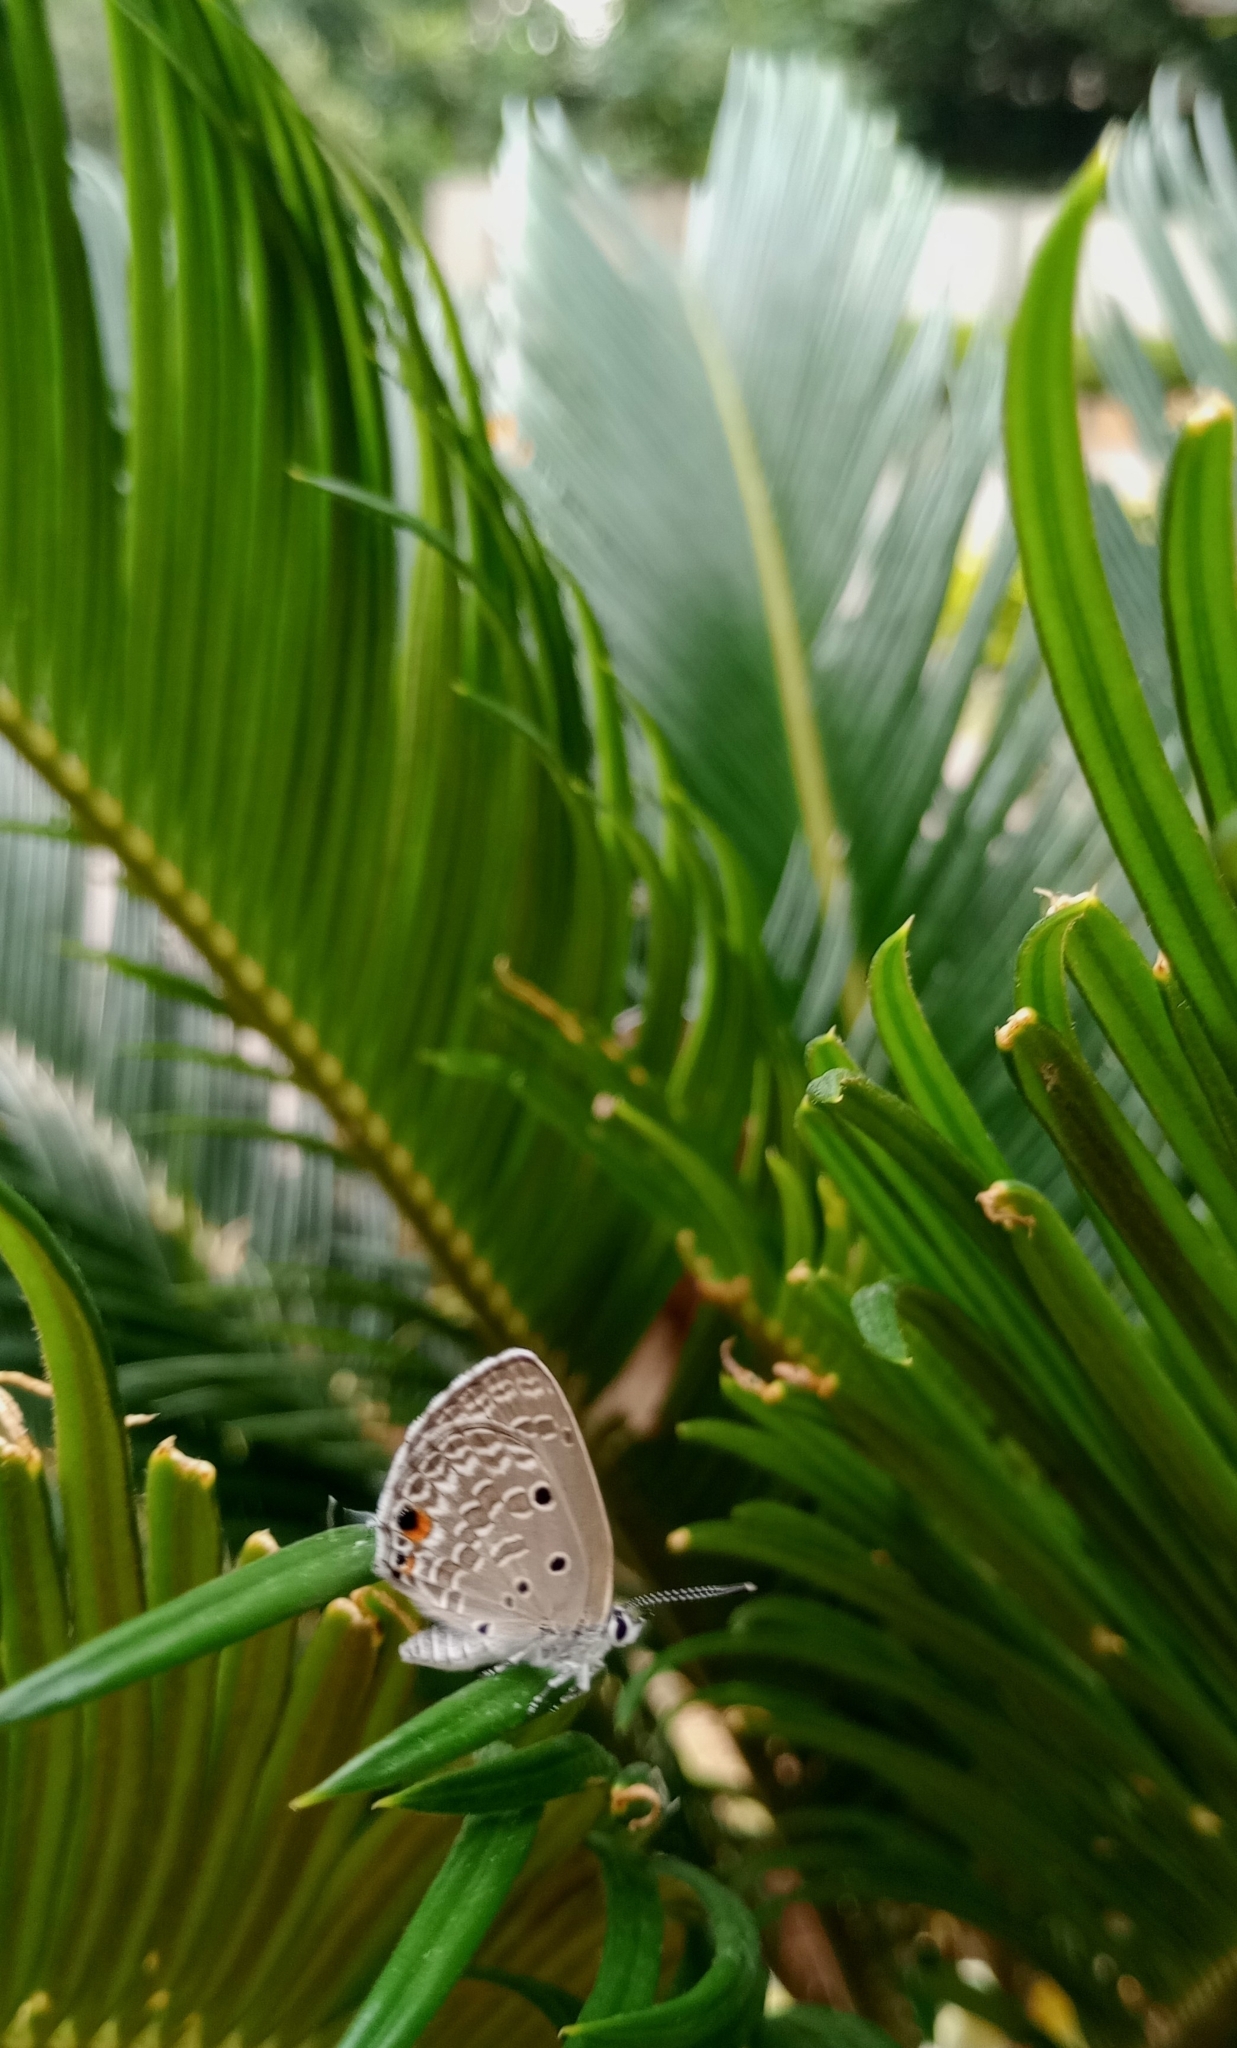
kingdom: Animalia
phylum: Arthropoda
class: Insecta
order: Lepidoptera
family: Lycaenidae
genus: Luthrodes
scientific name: Luthrodes pandava
